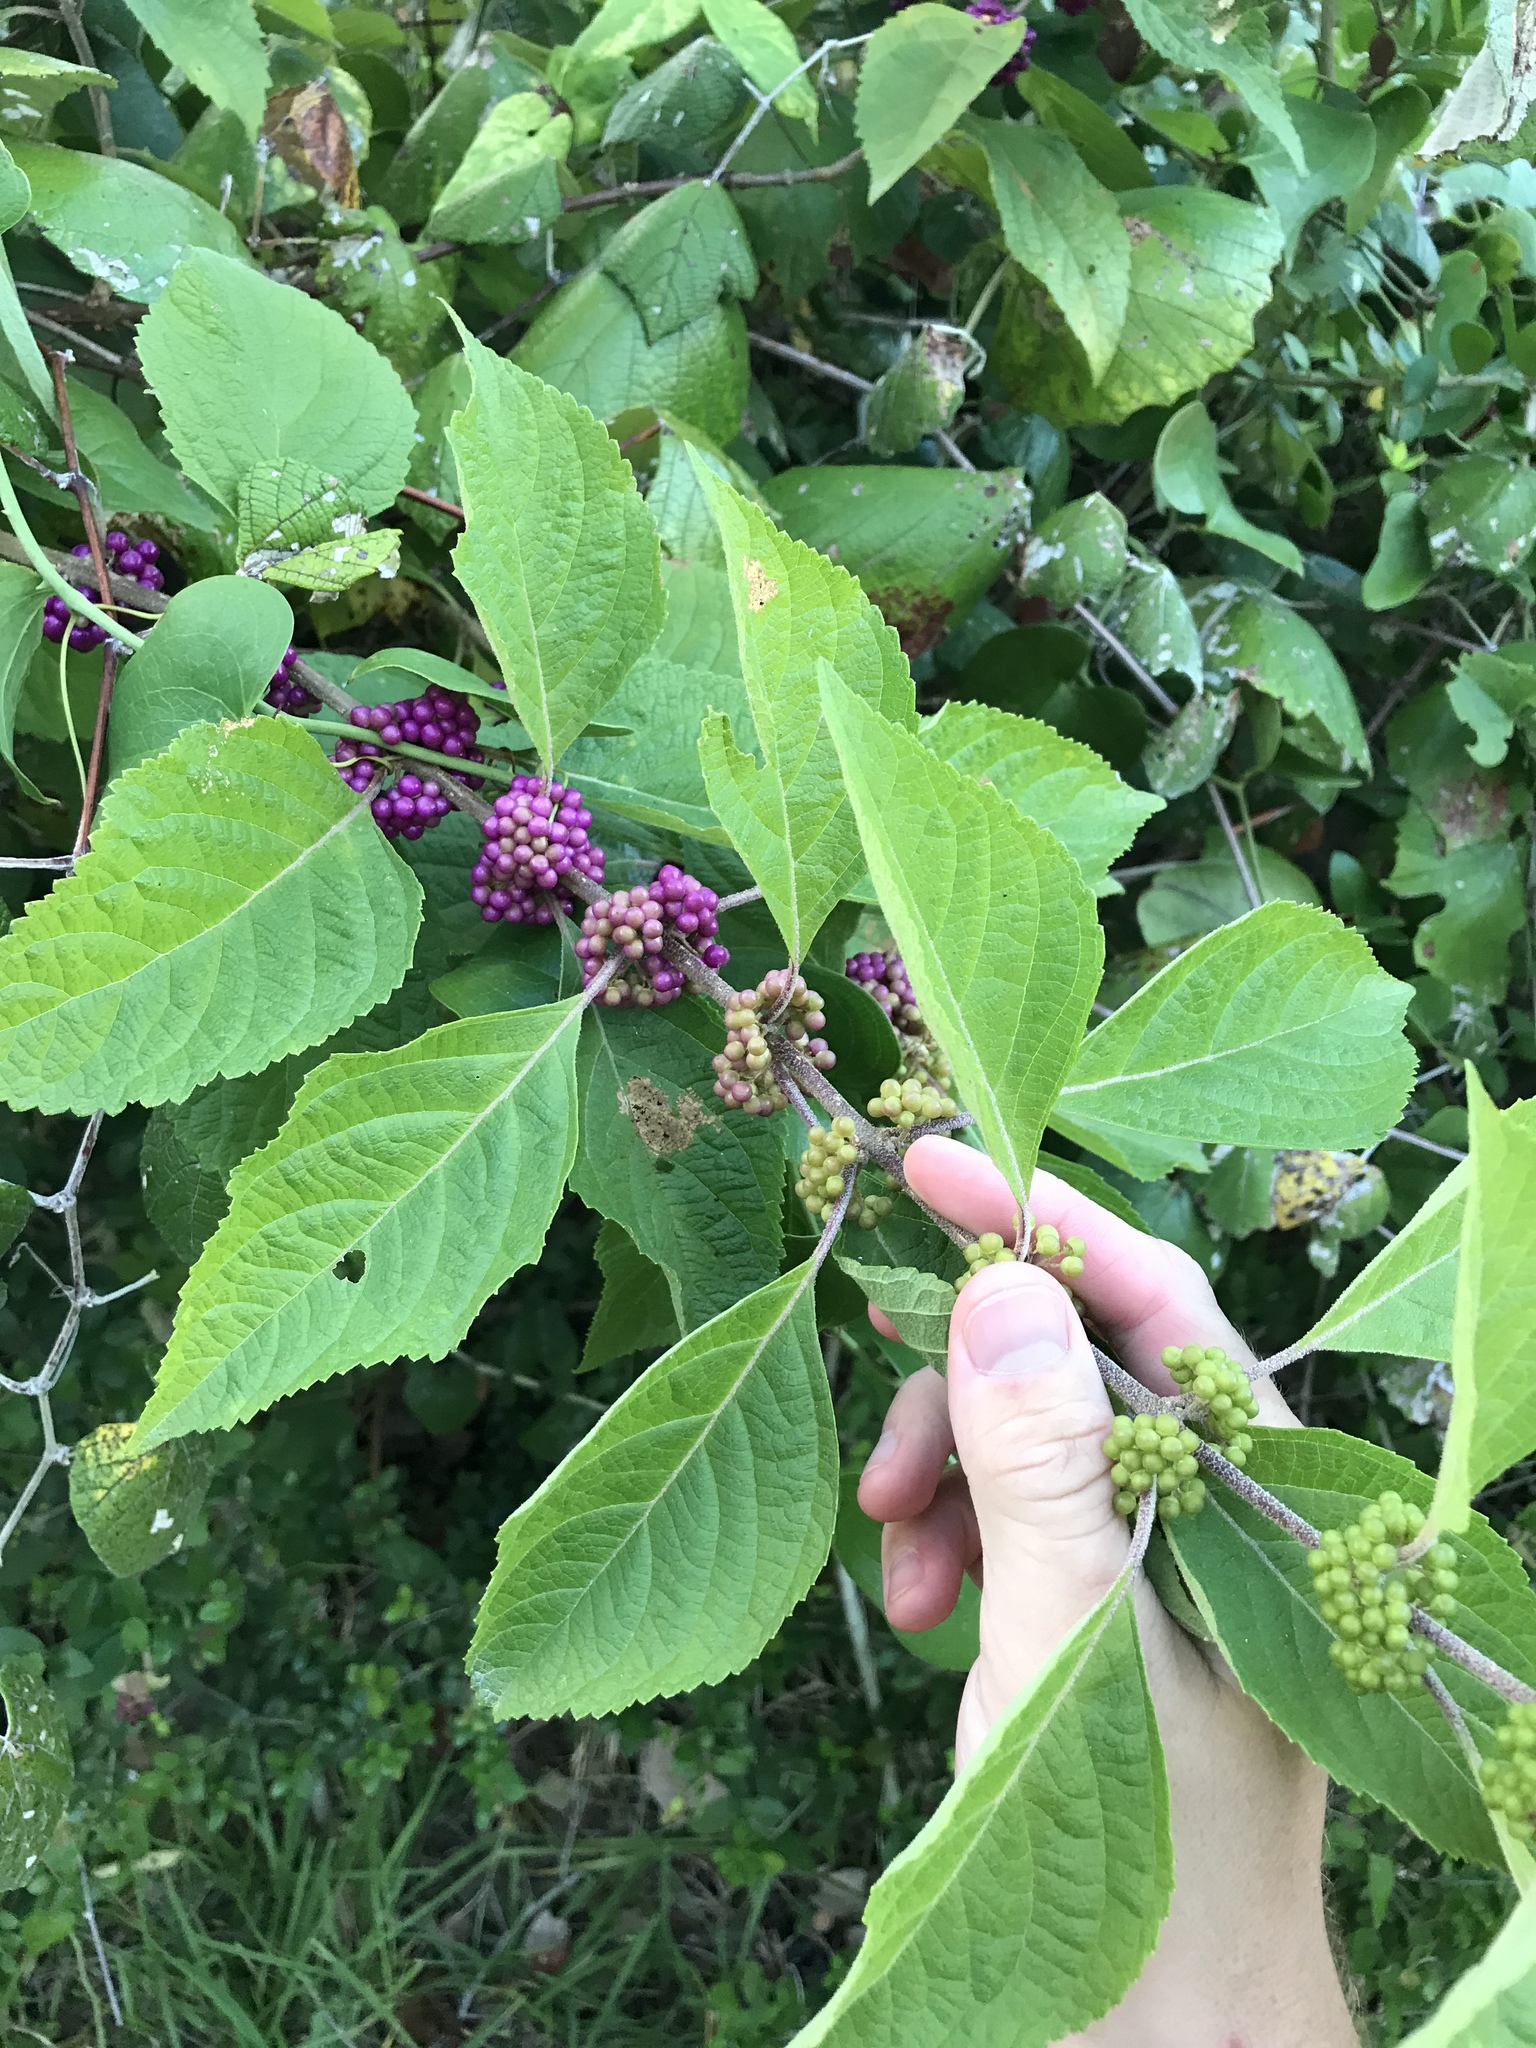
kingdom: Plantae
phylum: Tracheophyta
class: Magnoliopsida
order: Lamiales
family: Lamiaceae
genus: Callicarpa
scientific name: Callicarpa americana
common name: American beautyberry
